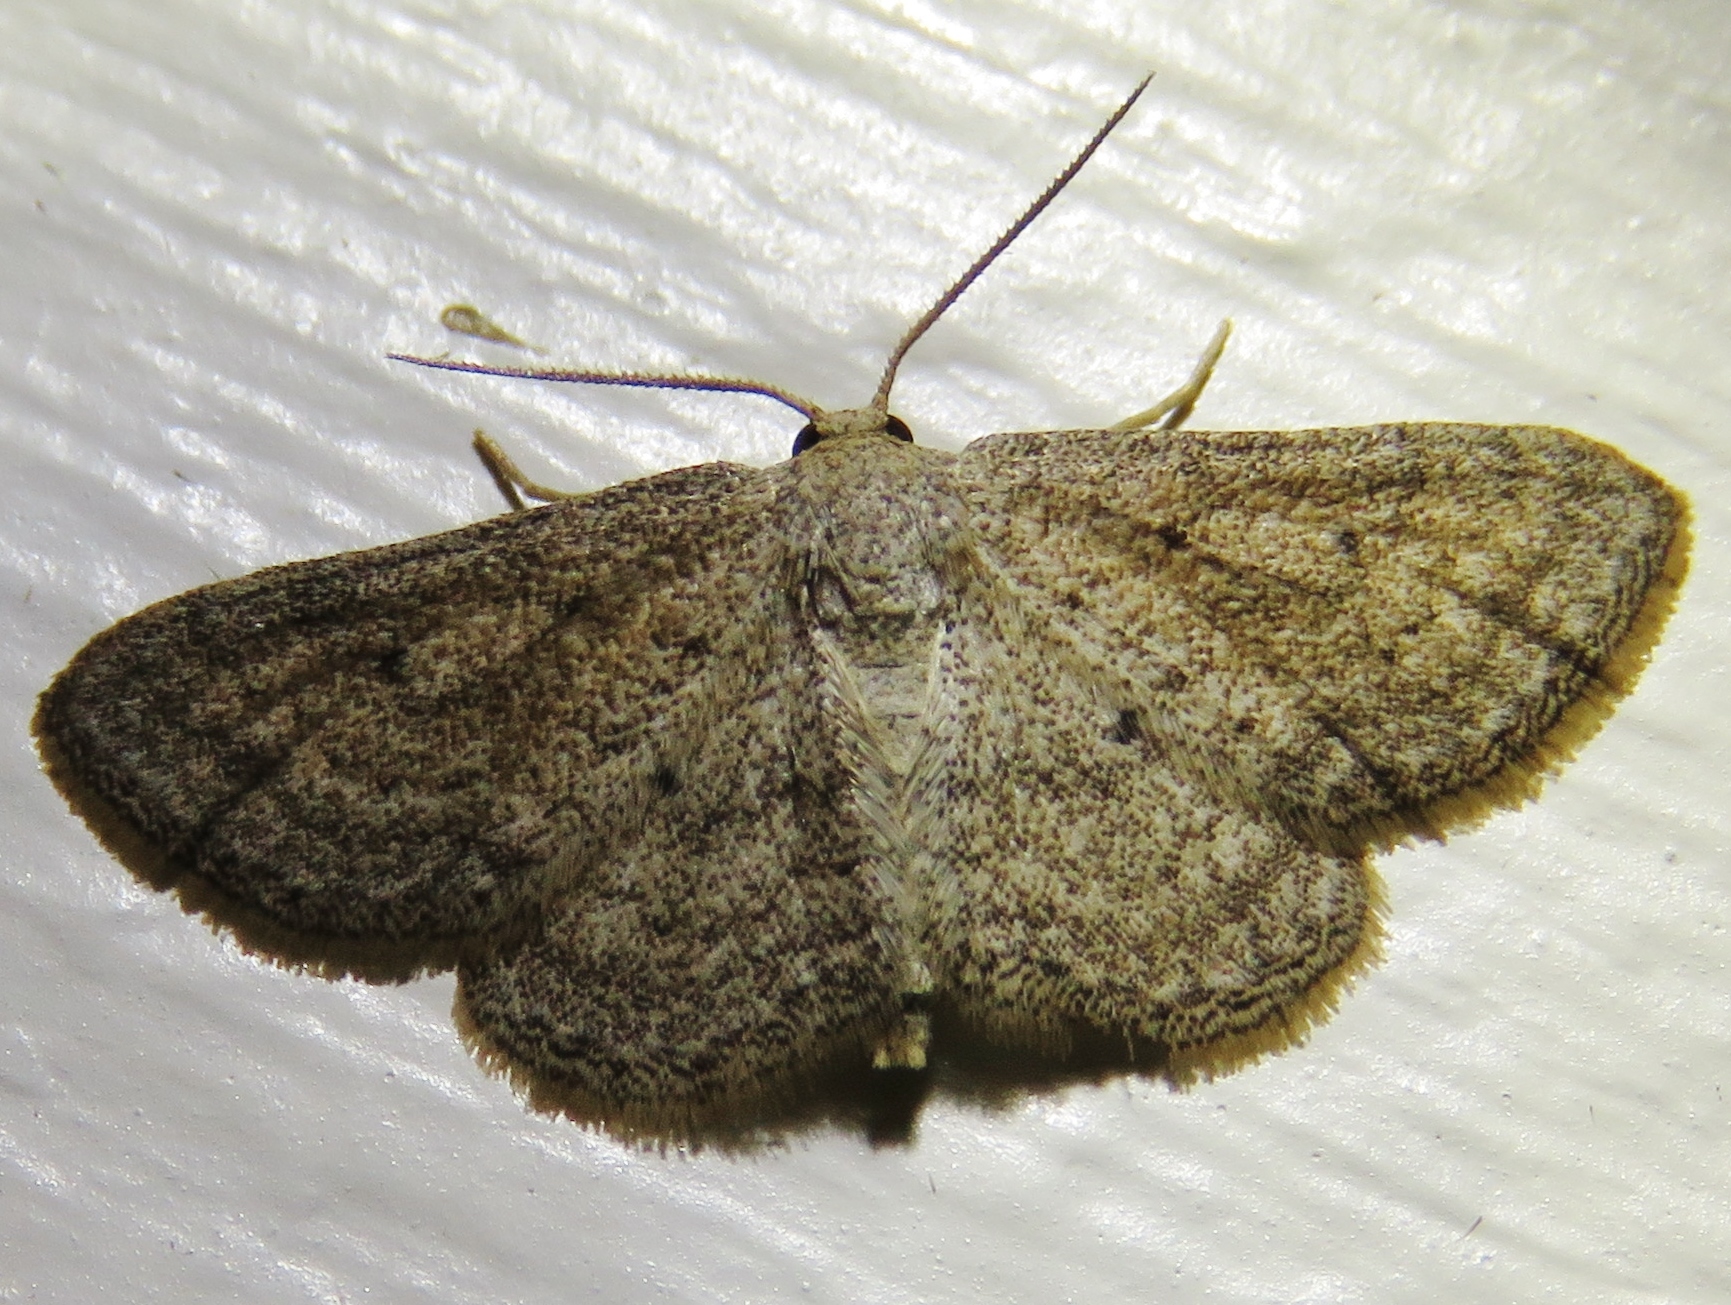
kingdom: Animalia
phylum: Arthropoda
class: Insecta
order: Lepidoptera
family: Geometridae
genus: Lobocleta
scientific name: Lobocleta ossularia
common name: Drab brown wave
